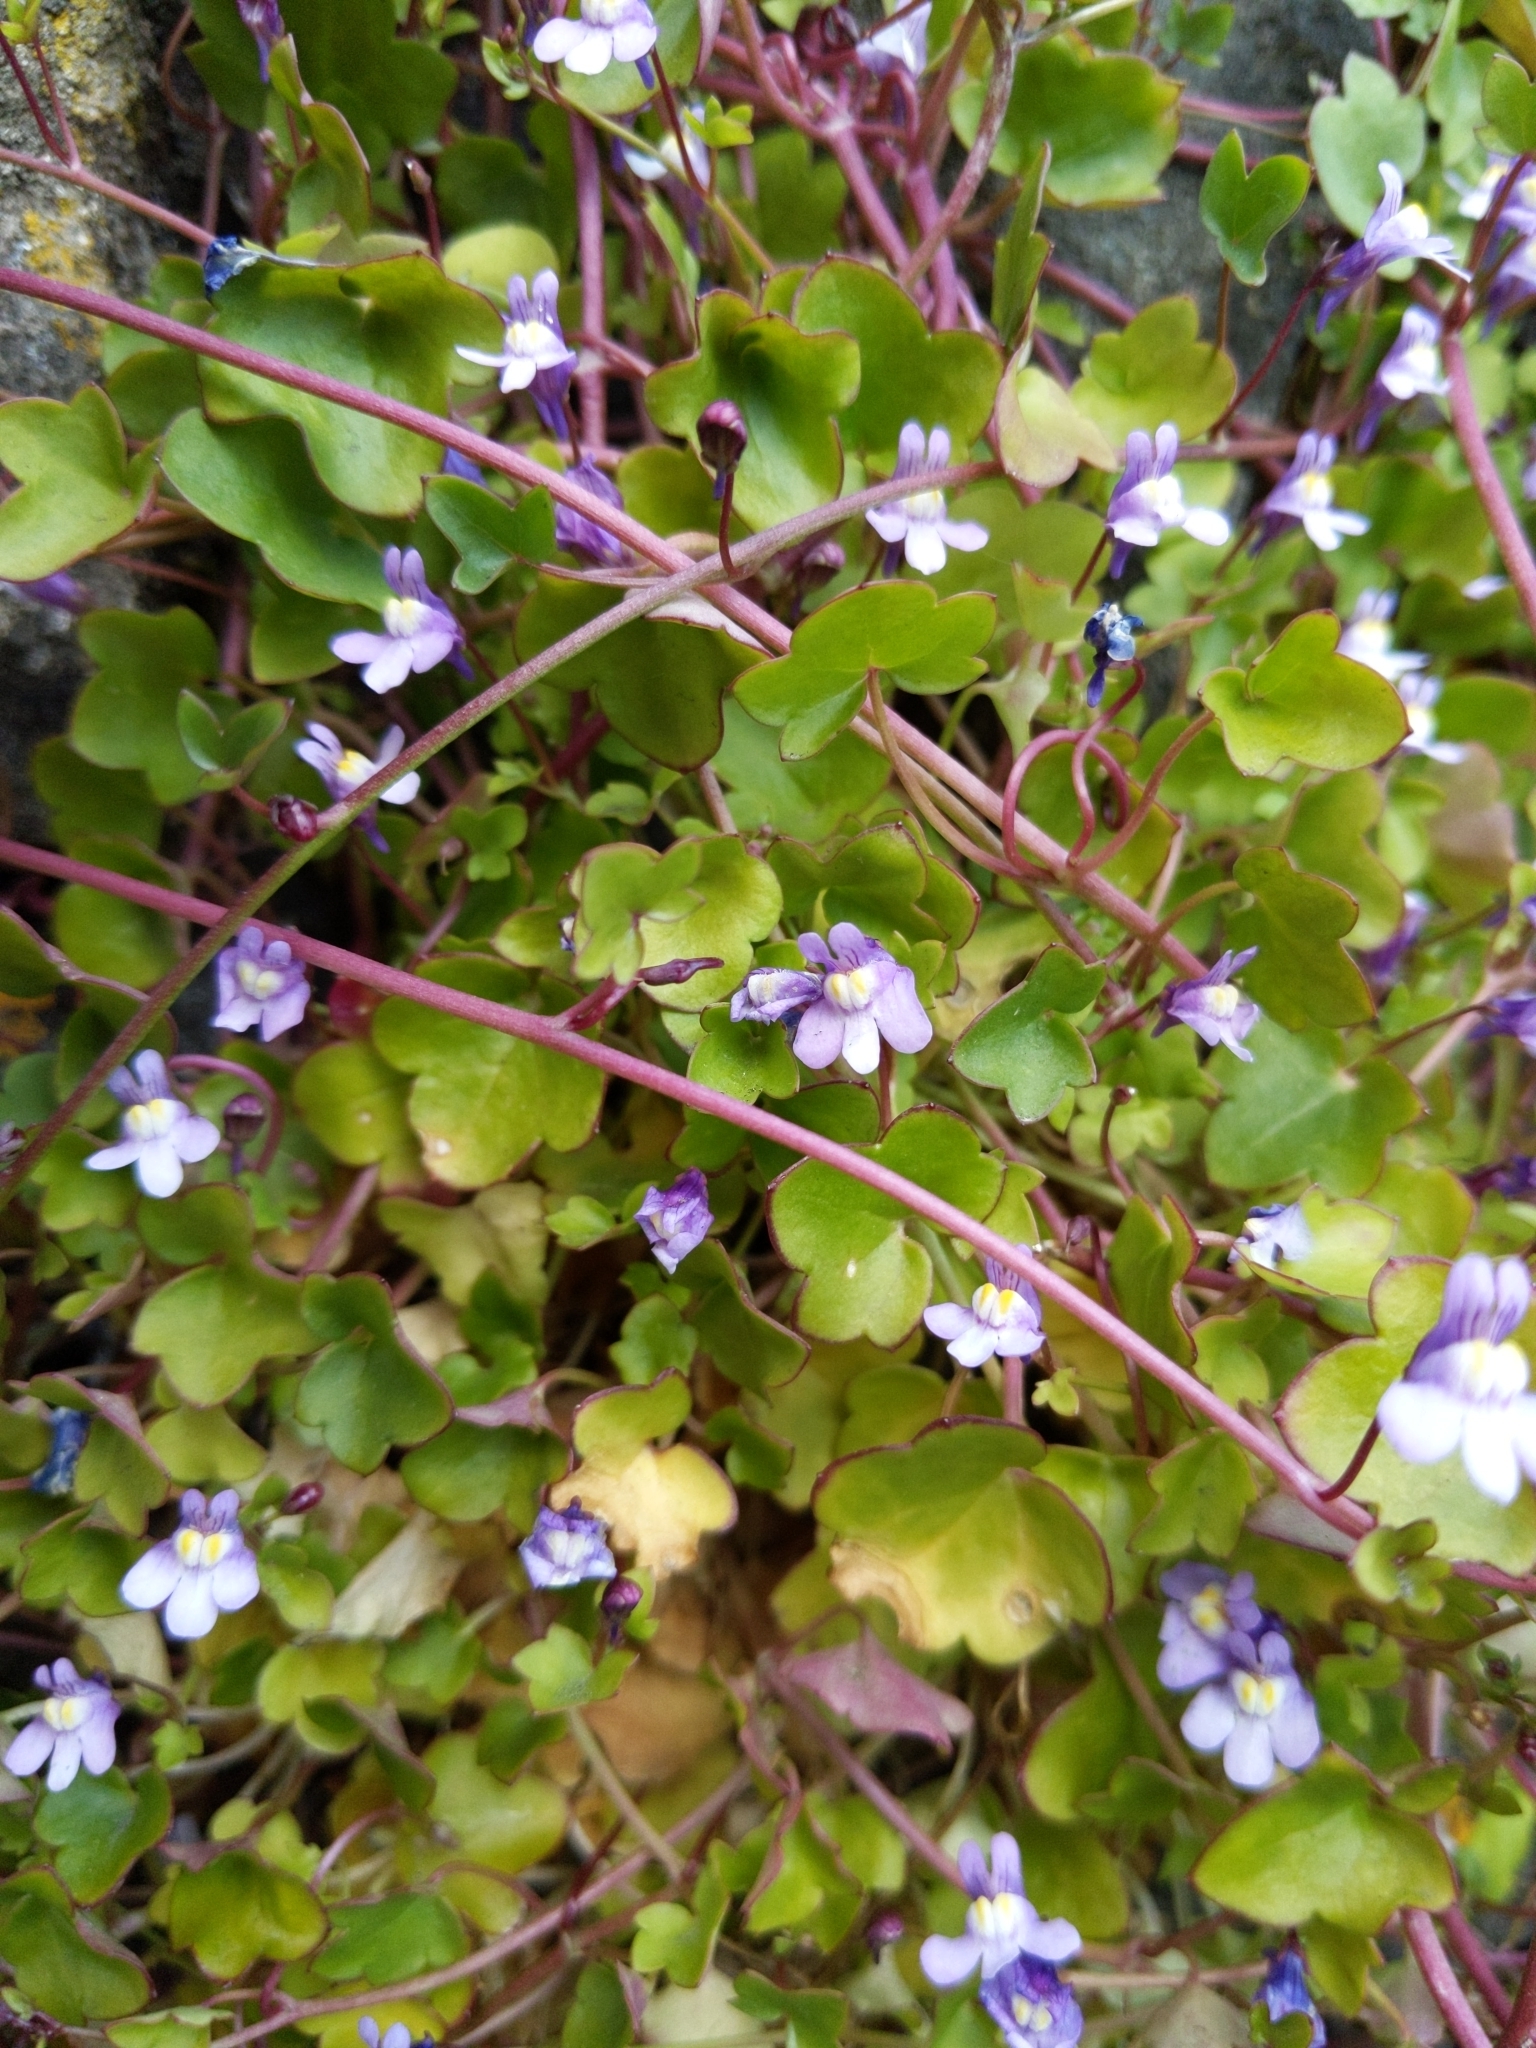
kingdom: Plantae
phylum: Tracheophyta
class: Magnoliopsida
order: Lamiales
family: Plantaginaceae
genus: Cymbalaria
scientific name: Cymbalaria muralis
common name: Ivy-leaved toadflax
